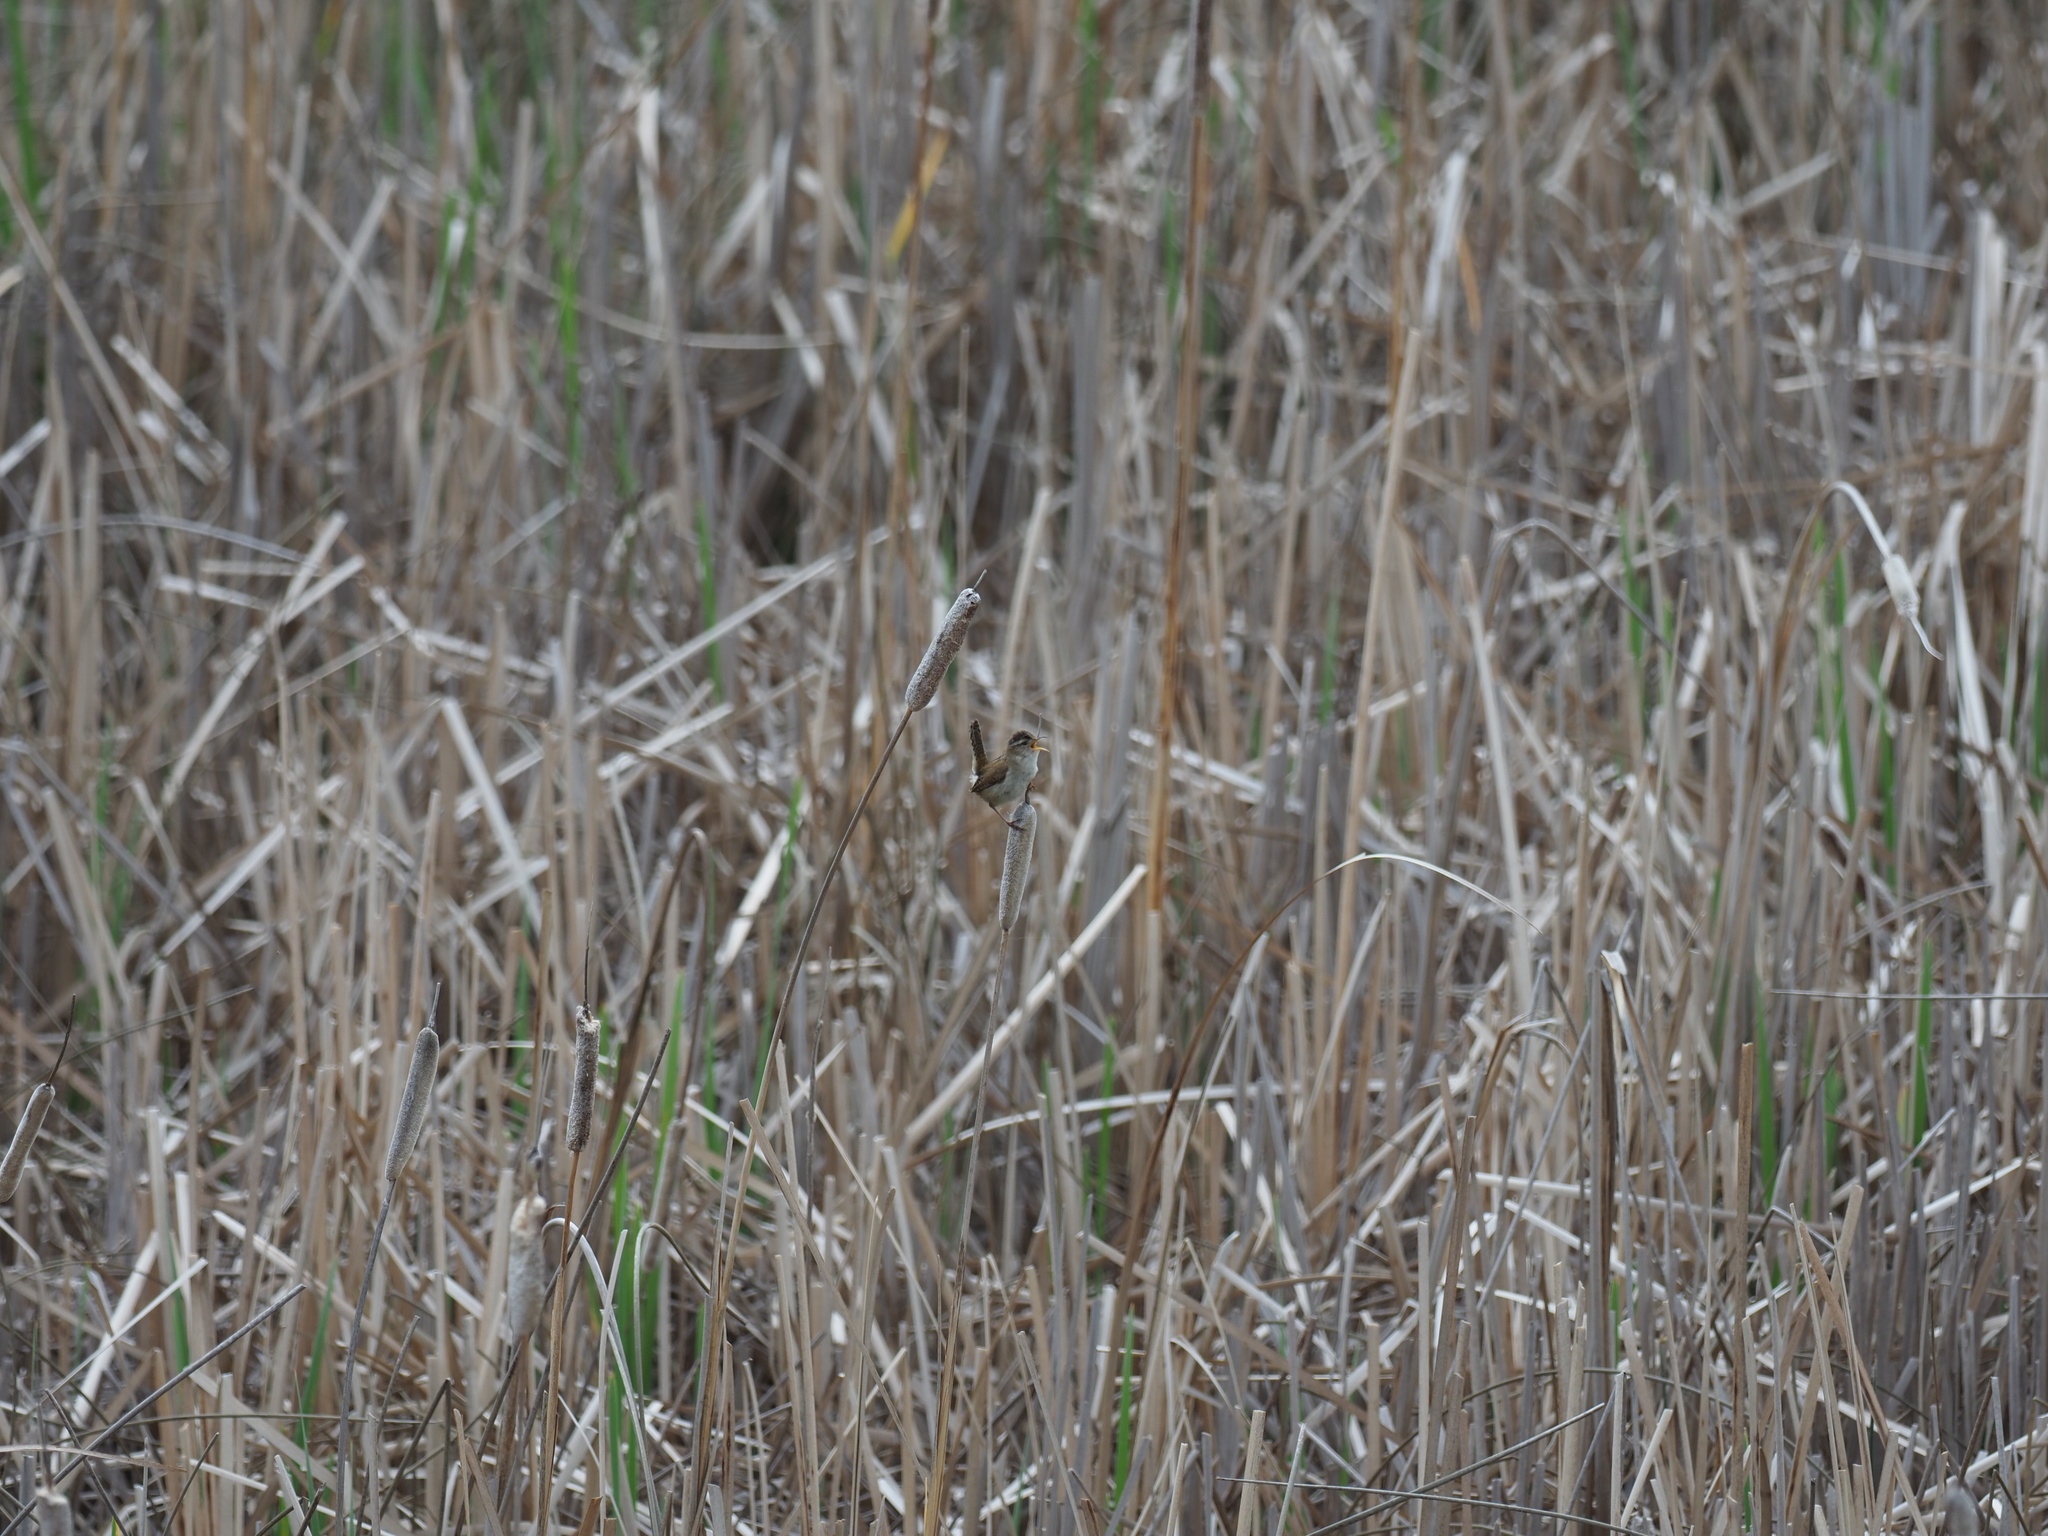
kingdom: Animalia
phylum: Chordata
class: Aves
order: Passeriformes
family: Troglodytidae
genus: Cistothorus
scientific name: Cistothorus palustris
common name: Marsh wren
